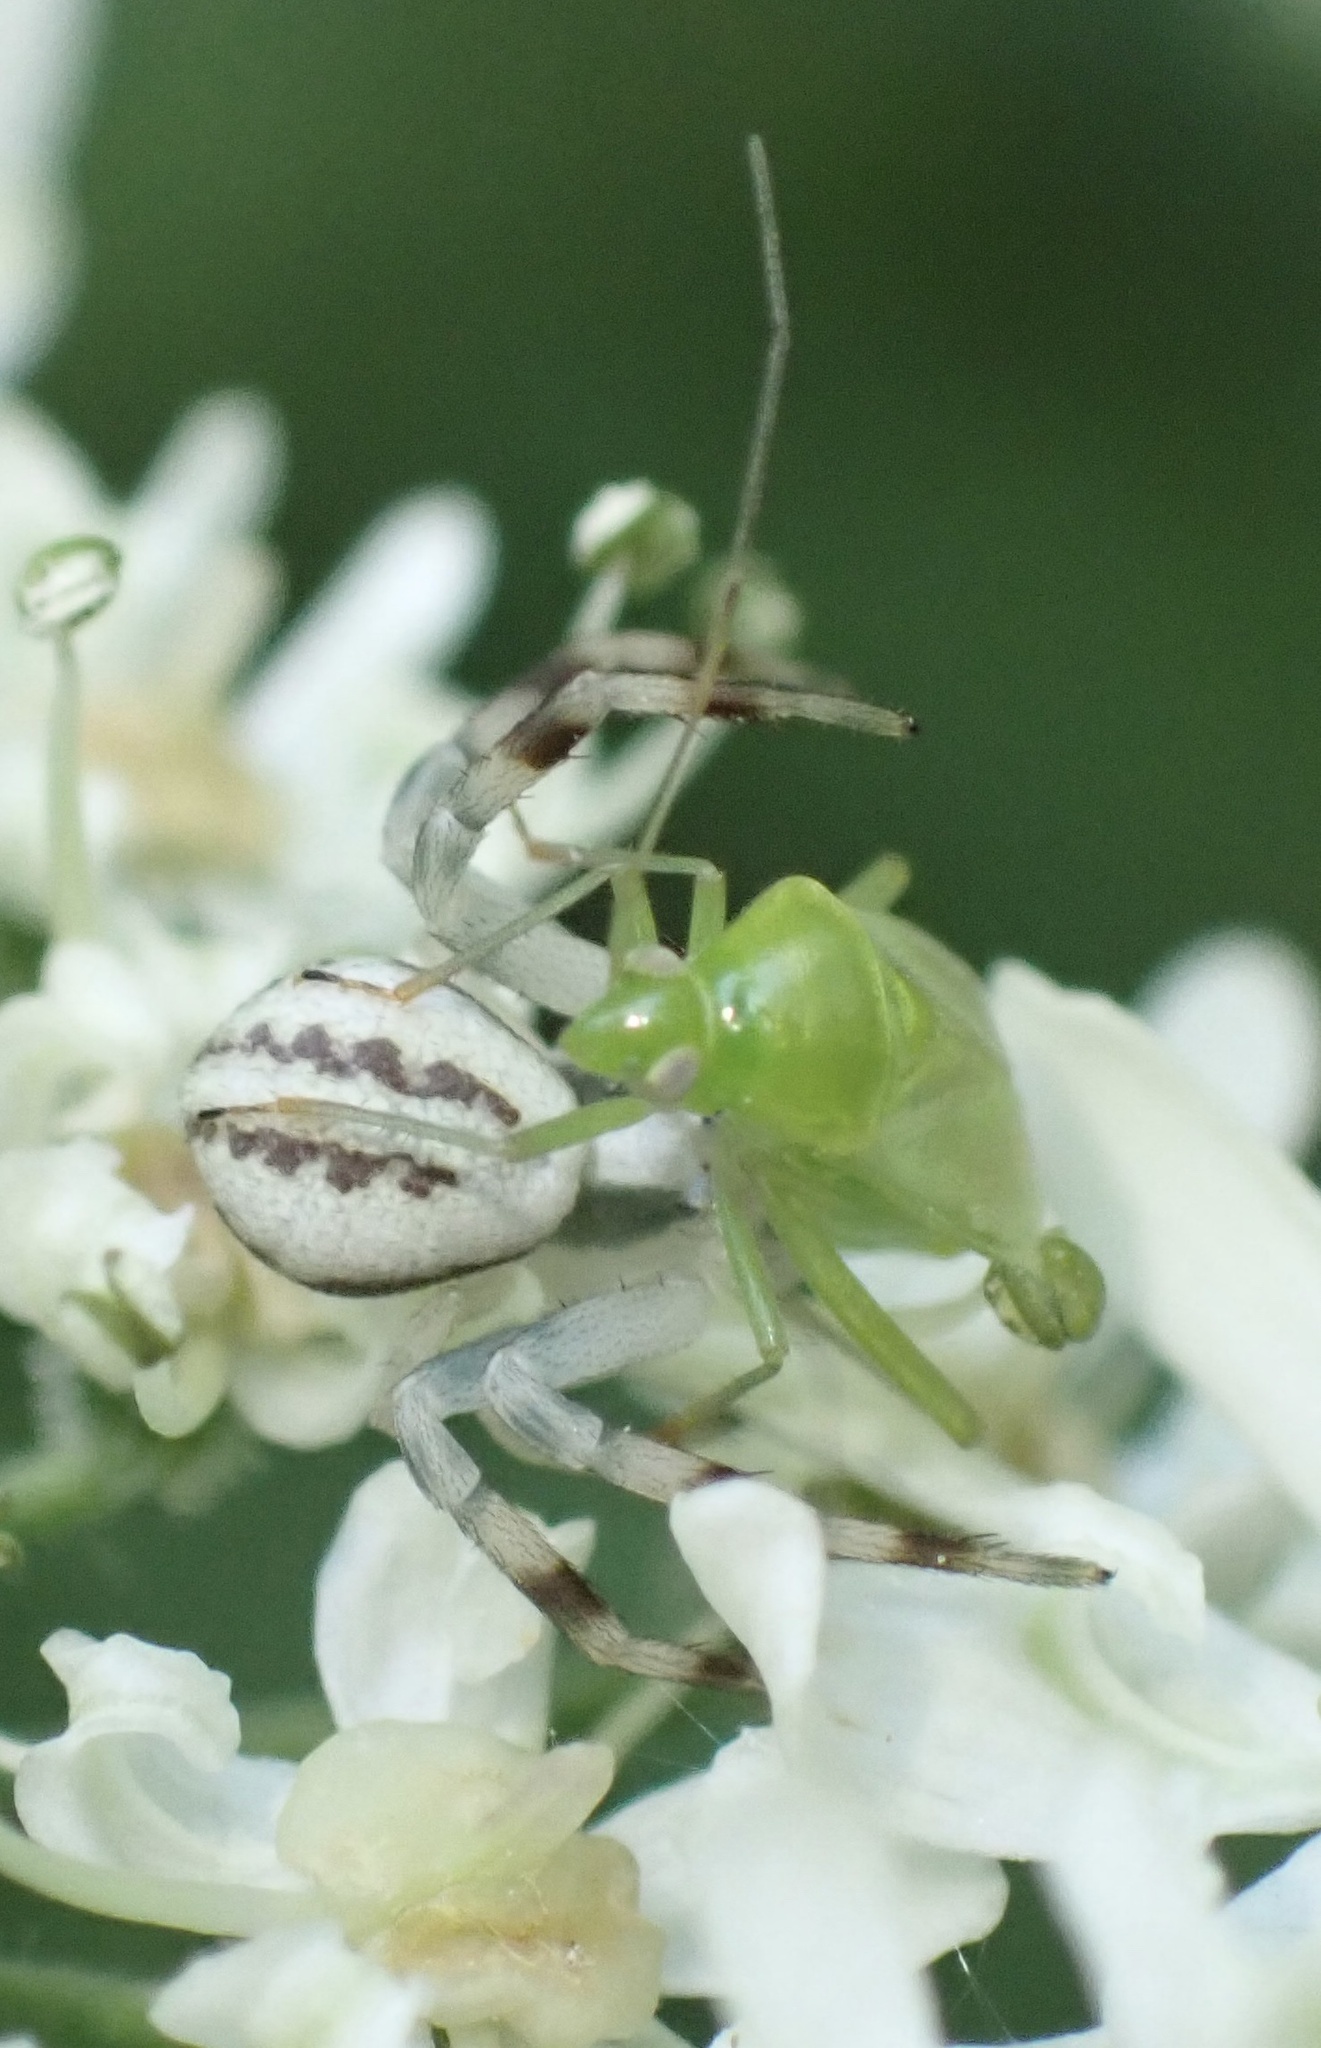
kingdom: Animalia
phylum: Arthropoda
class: Arachnida
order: Araneae
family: Thomisidae
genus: Misumena
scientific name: Misumena vatia
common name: Goldenrod crab spider
